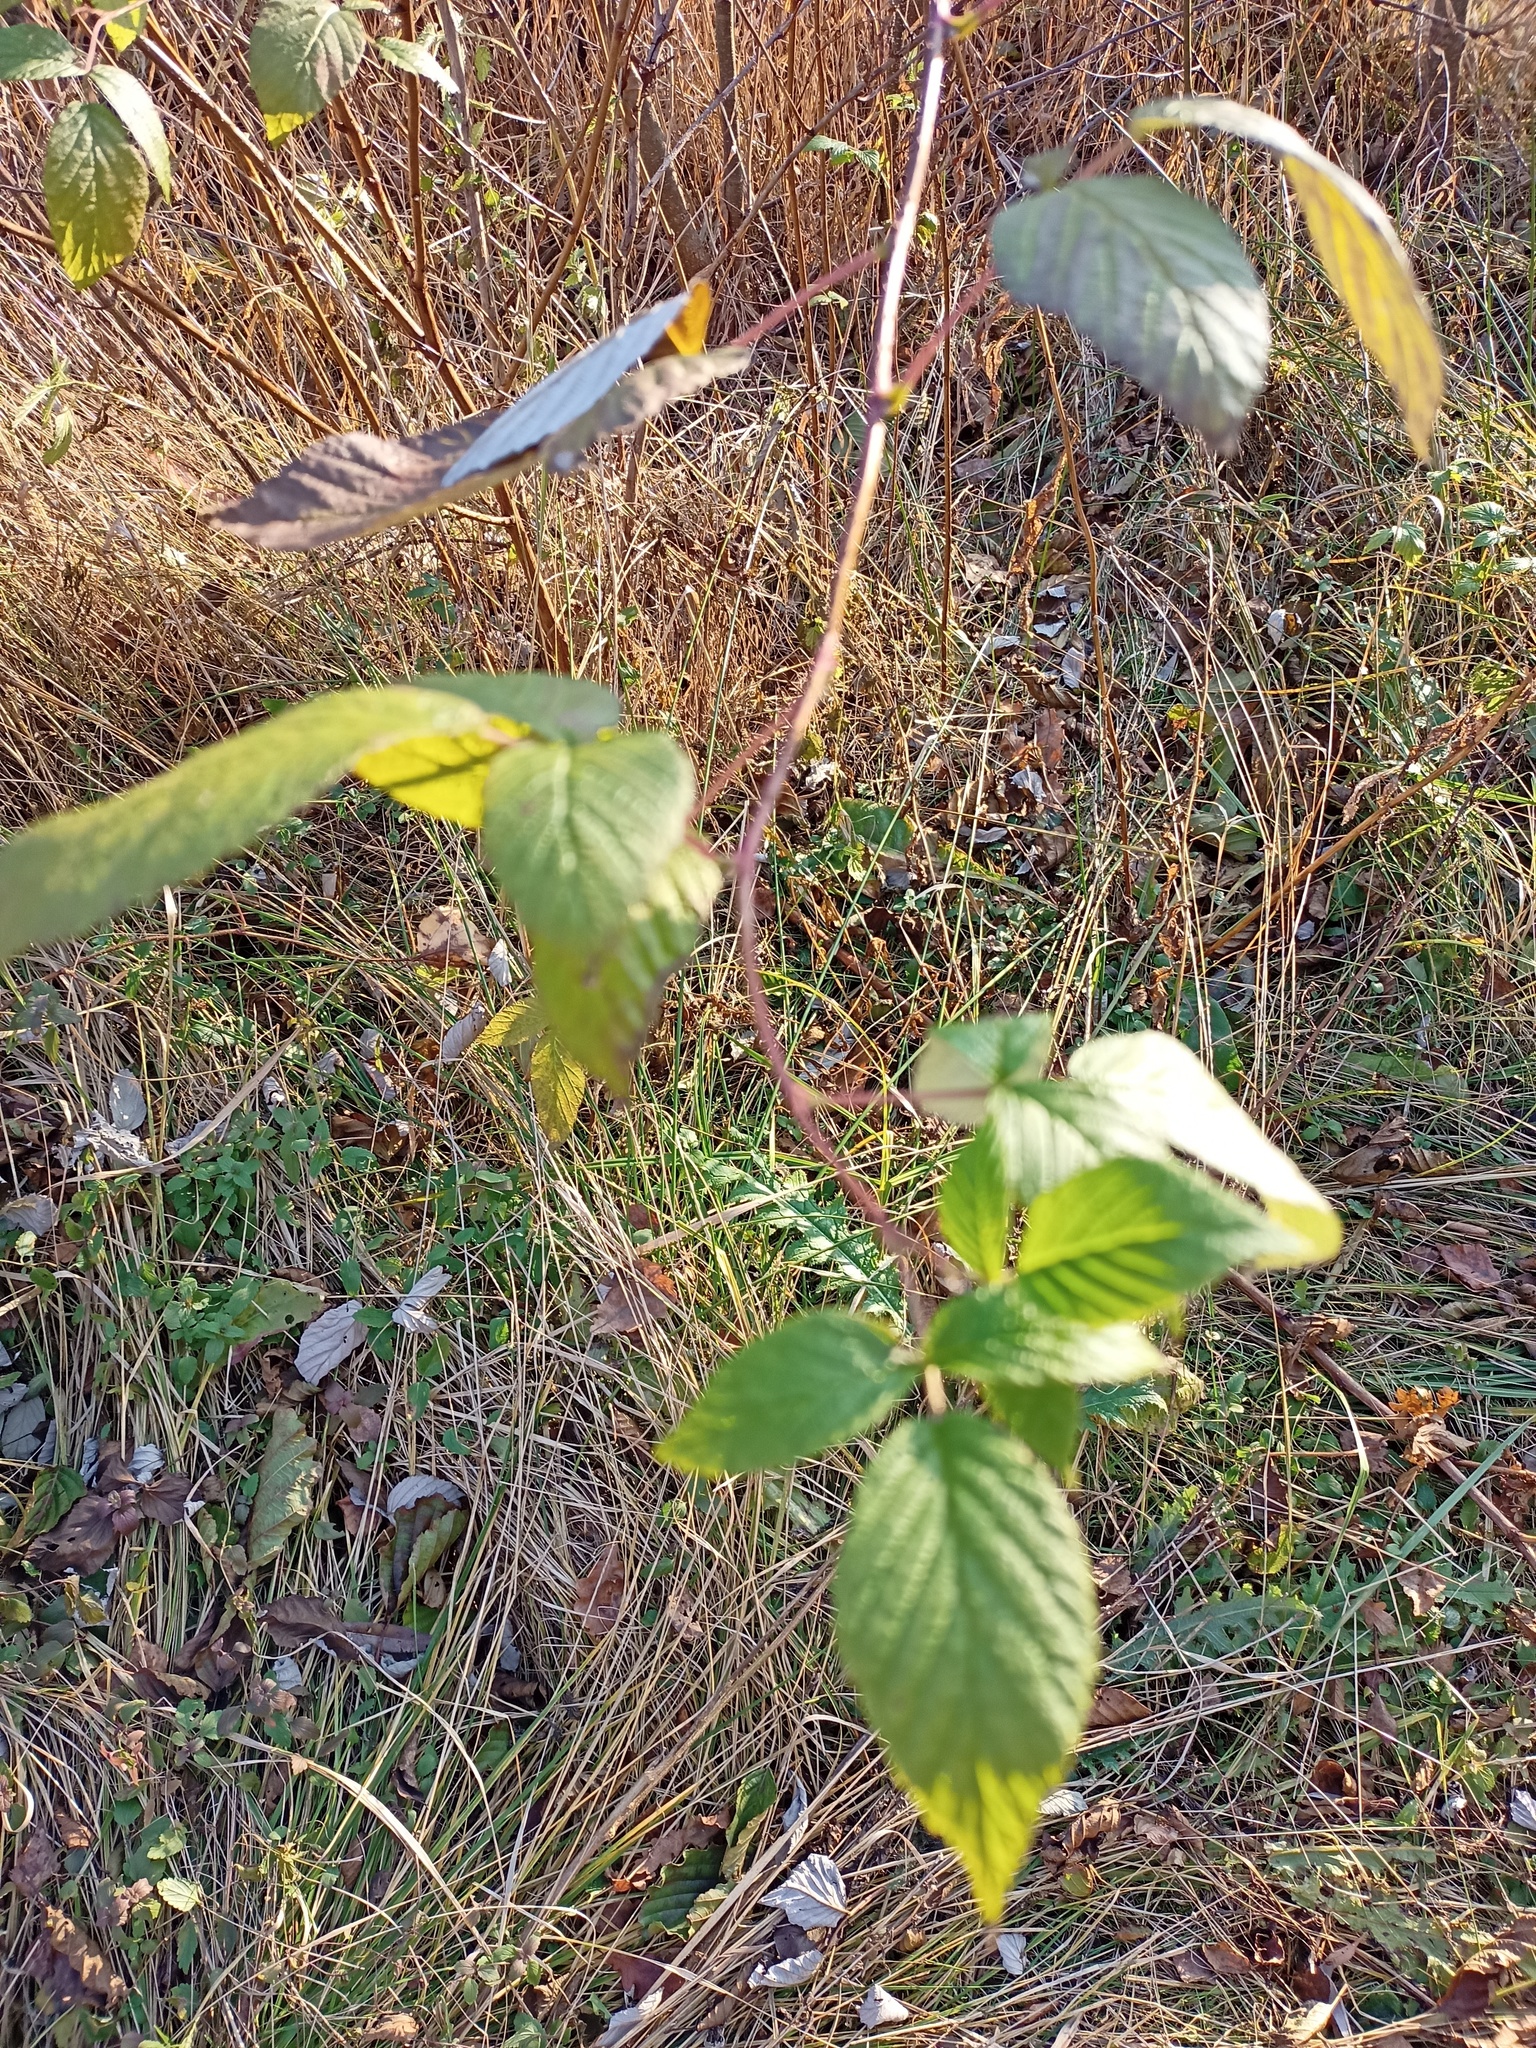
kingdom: Plantae
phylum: Tracheophyta
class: Magnoliopsida
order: Rosales
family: Rosaceae
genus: Rubus
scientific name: Rubus idaeus
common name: Raspberry
